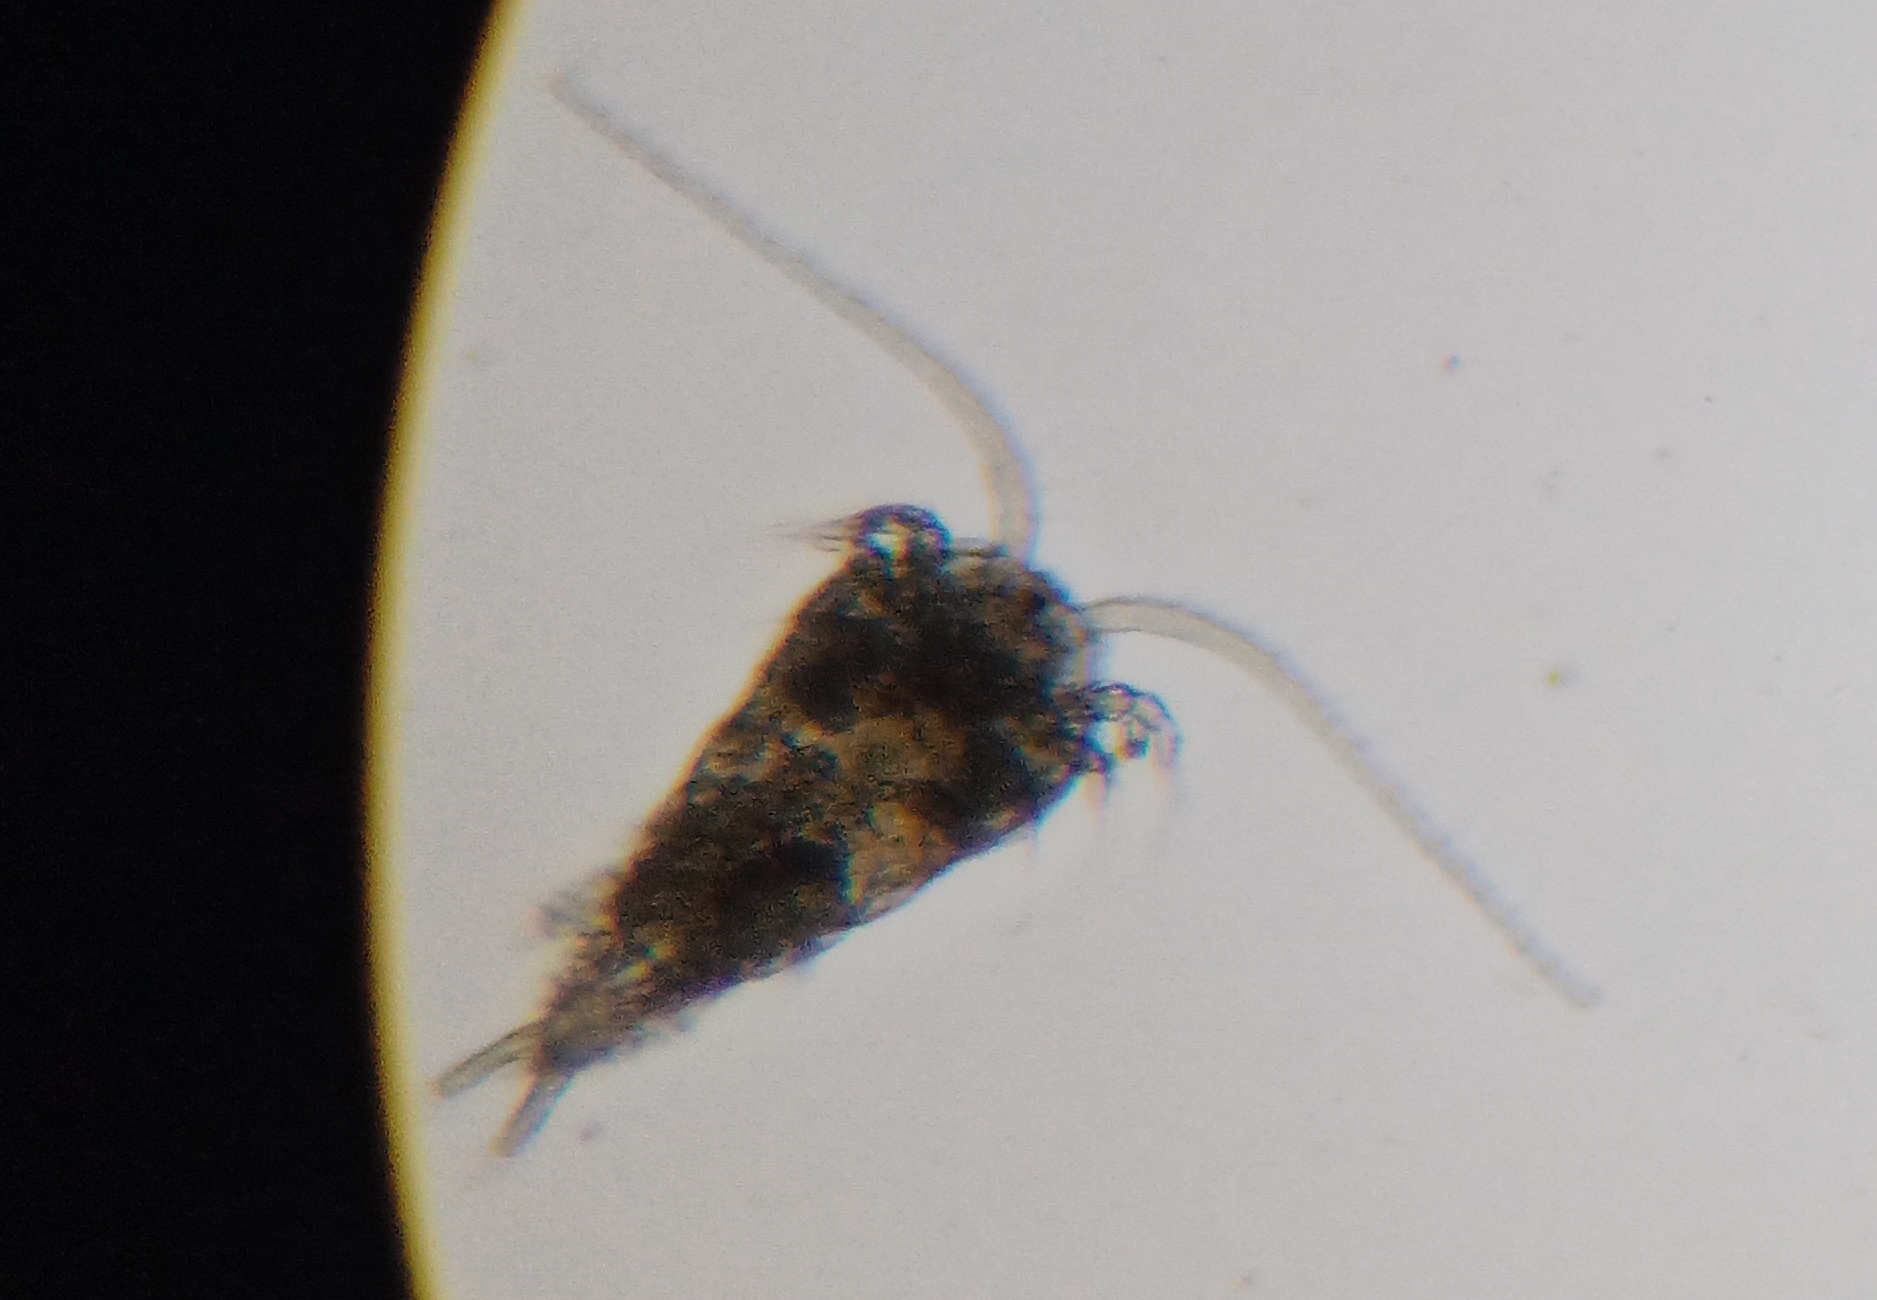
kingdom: Animalia
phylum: Arthropoda
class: Copepoda
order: Calanoida
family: Temoridae
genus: Temora
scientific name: Temora turbinata
